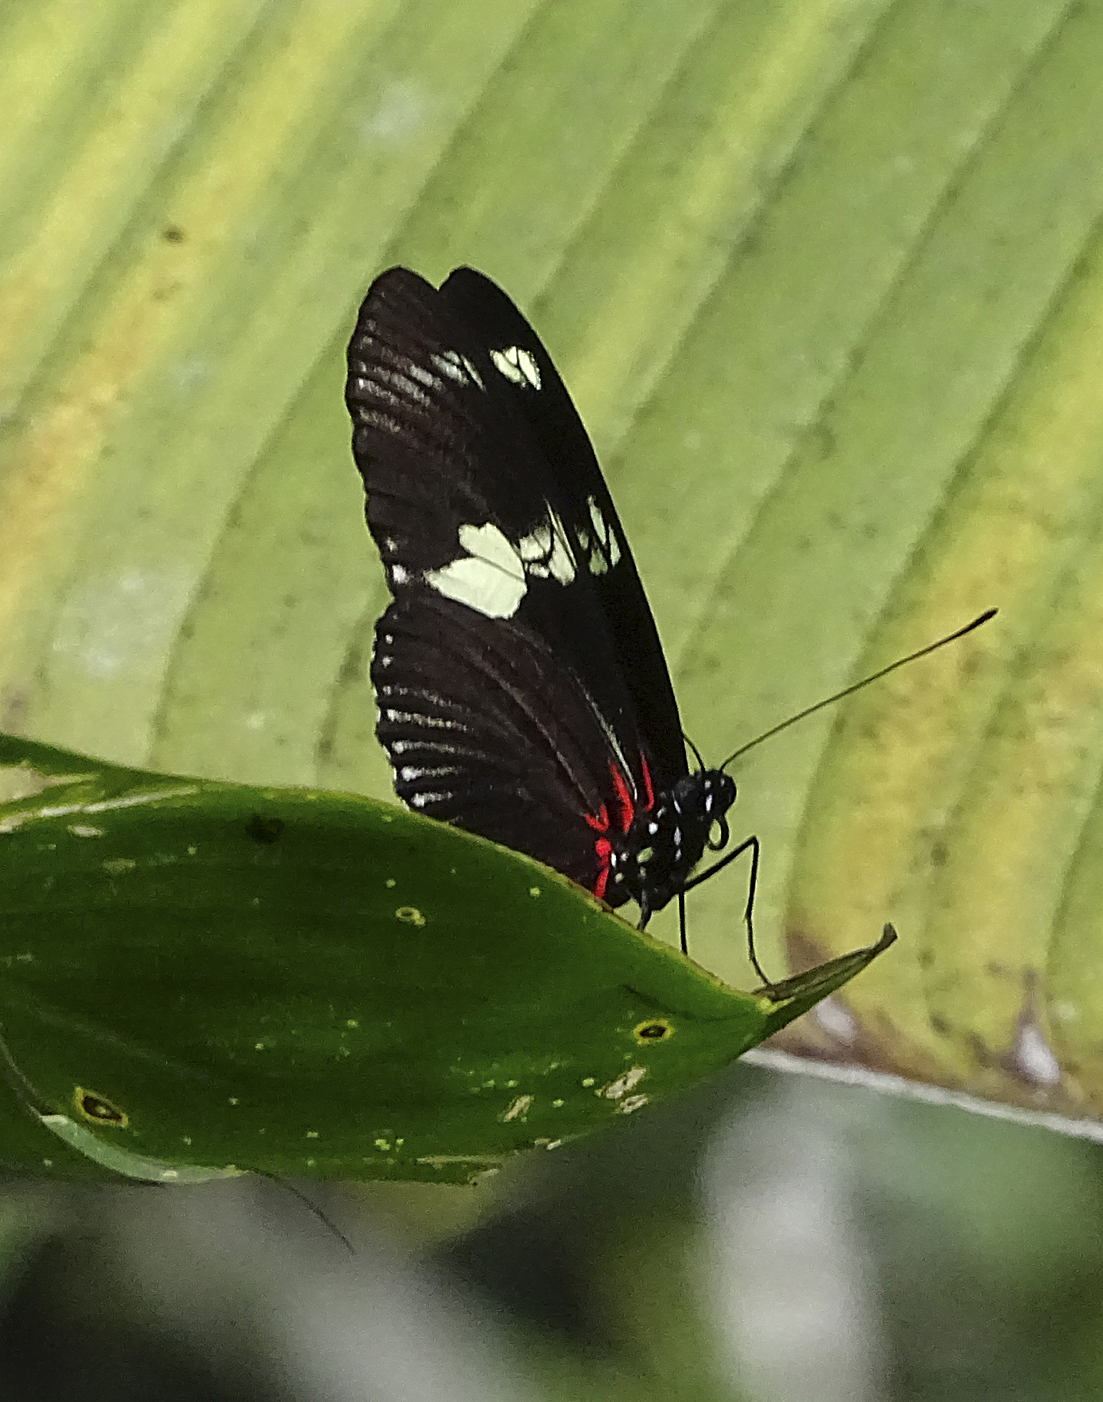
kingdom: Animalia
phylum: Arthropoda
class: Insecta
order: Lepidoptera
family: Nymphalidae
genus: Heliconius
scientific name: Heliconius doris
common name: Doris longwing
